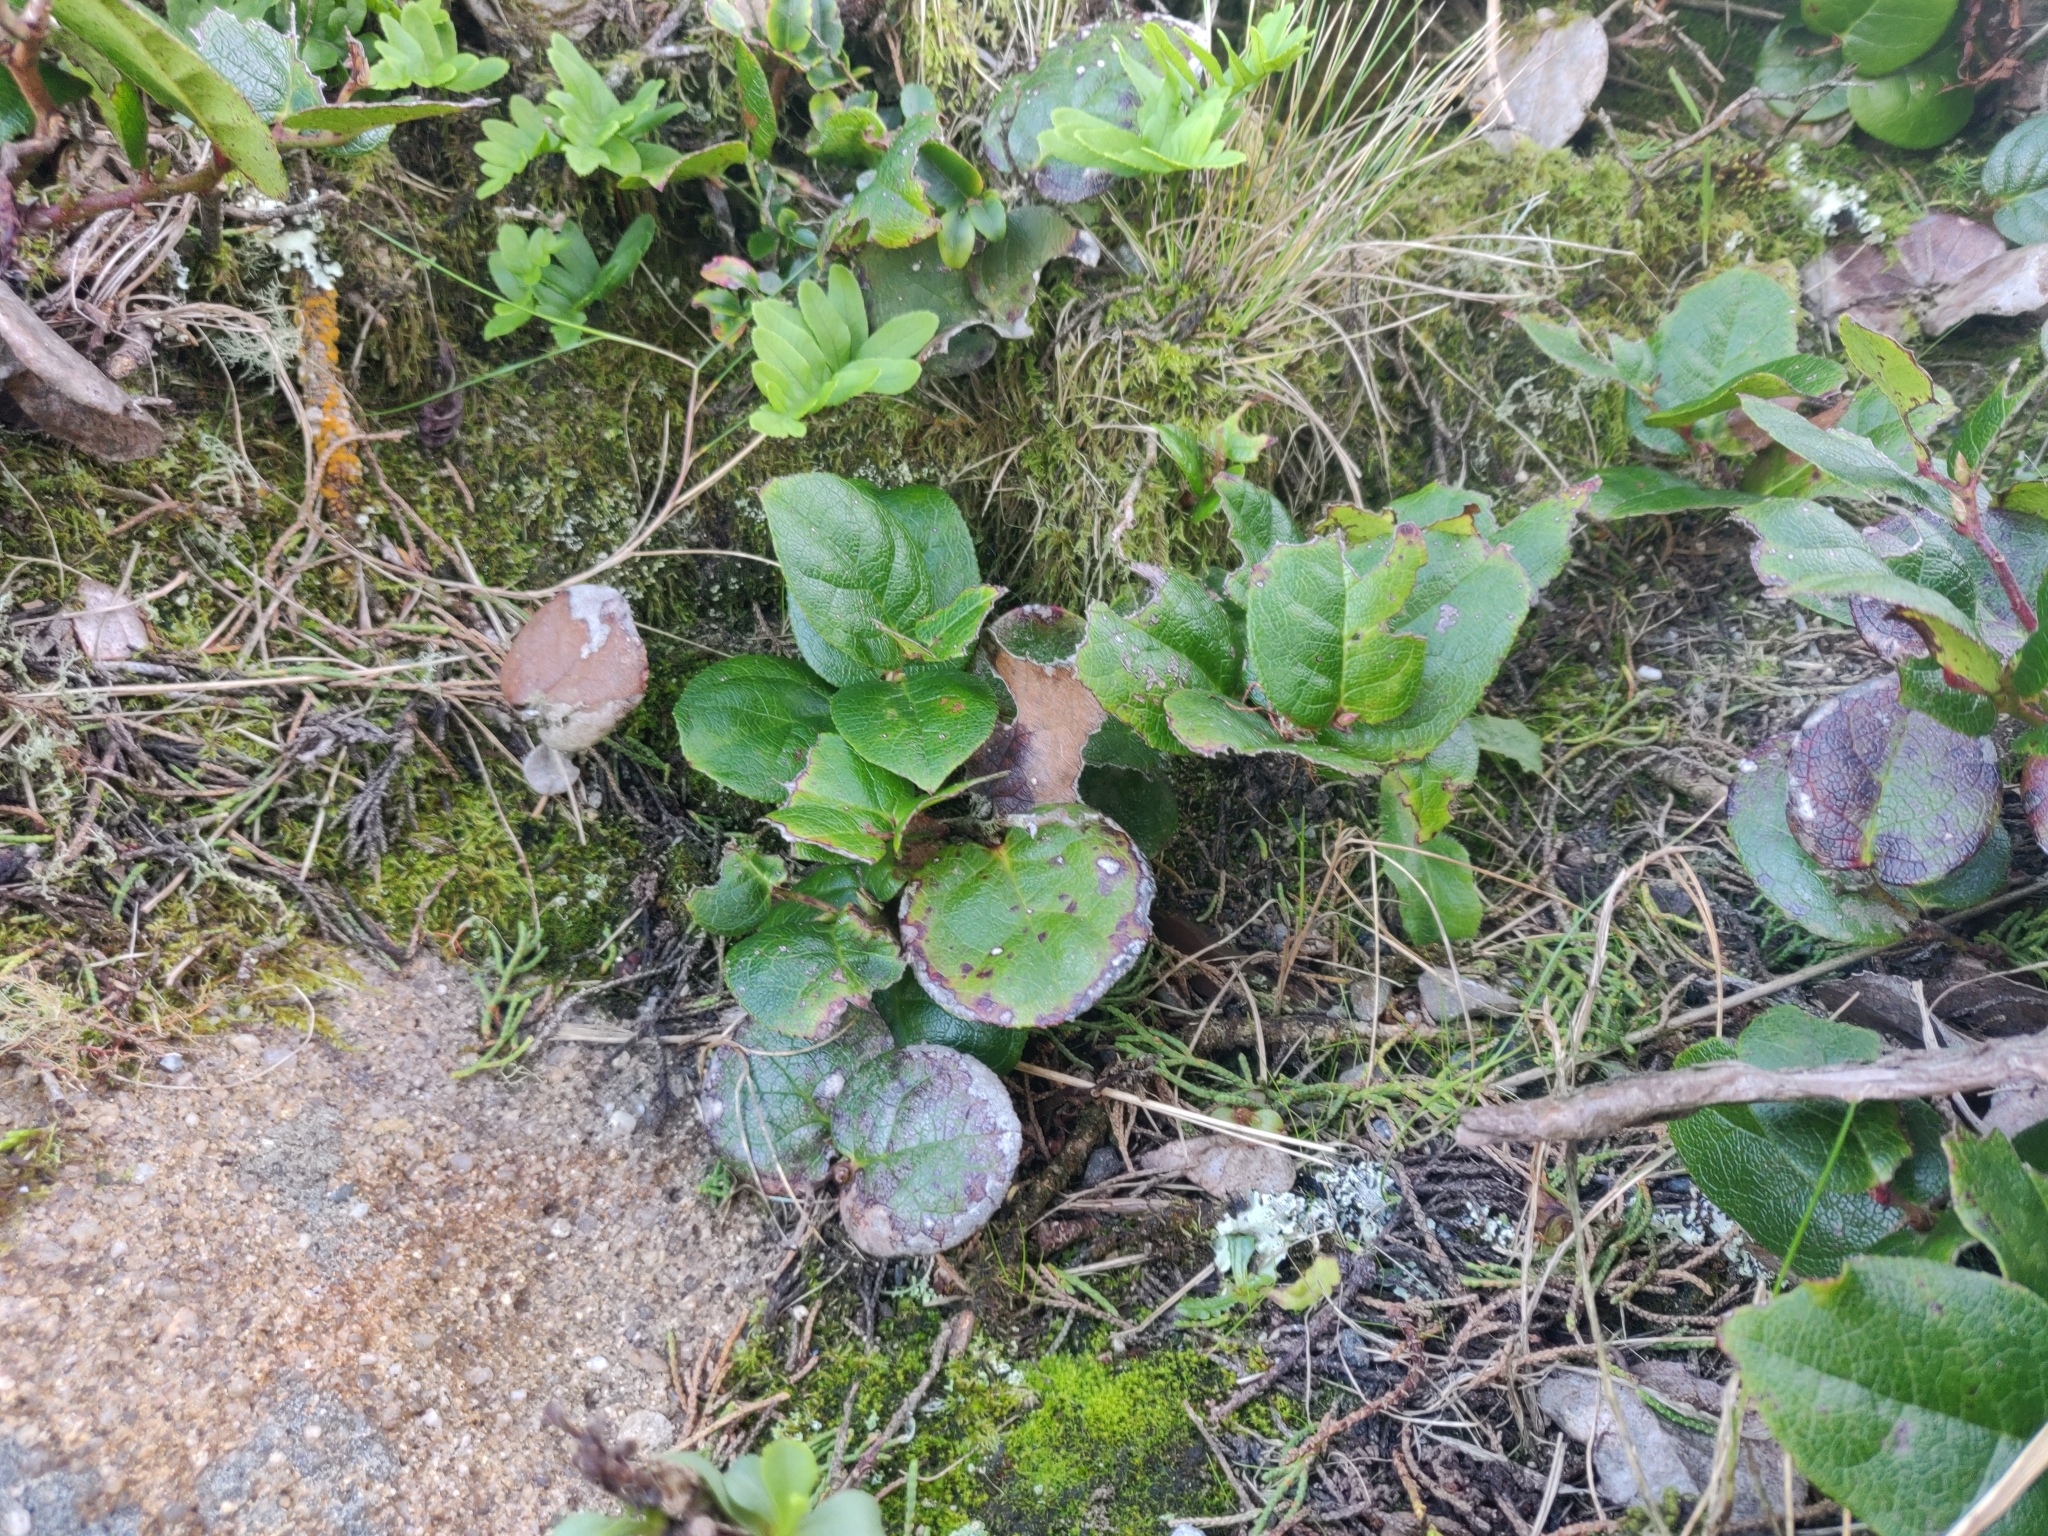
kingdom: Plantae
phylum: Tracheophyta
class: Magnoliopsida
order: Ericales
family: Ericaceae
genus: Gaultheria
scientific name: Gaultheria shallon
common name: Shallon
